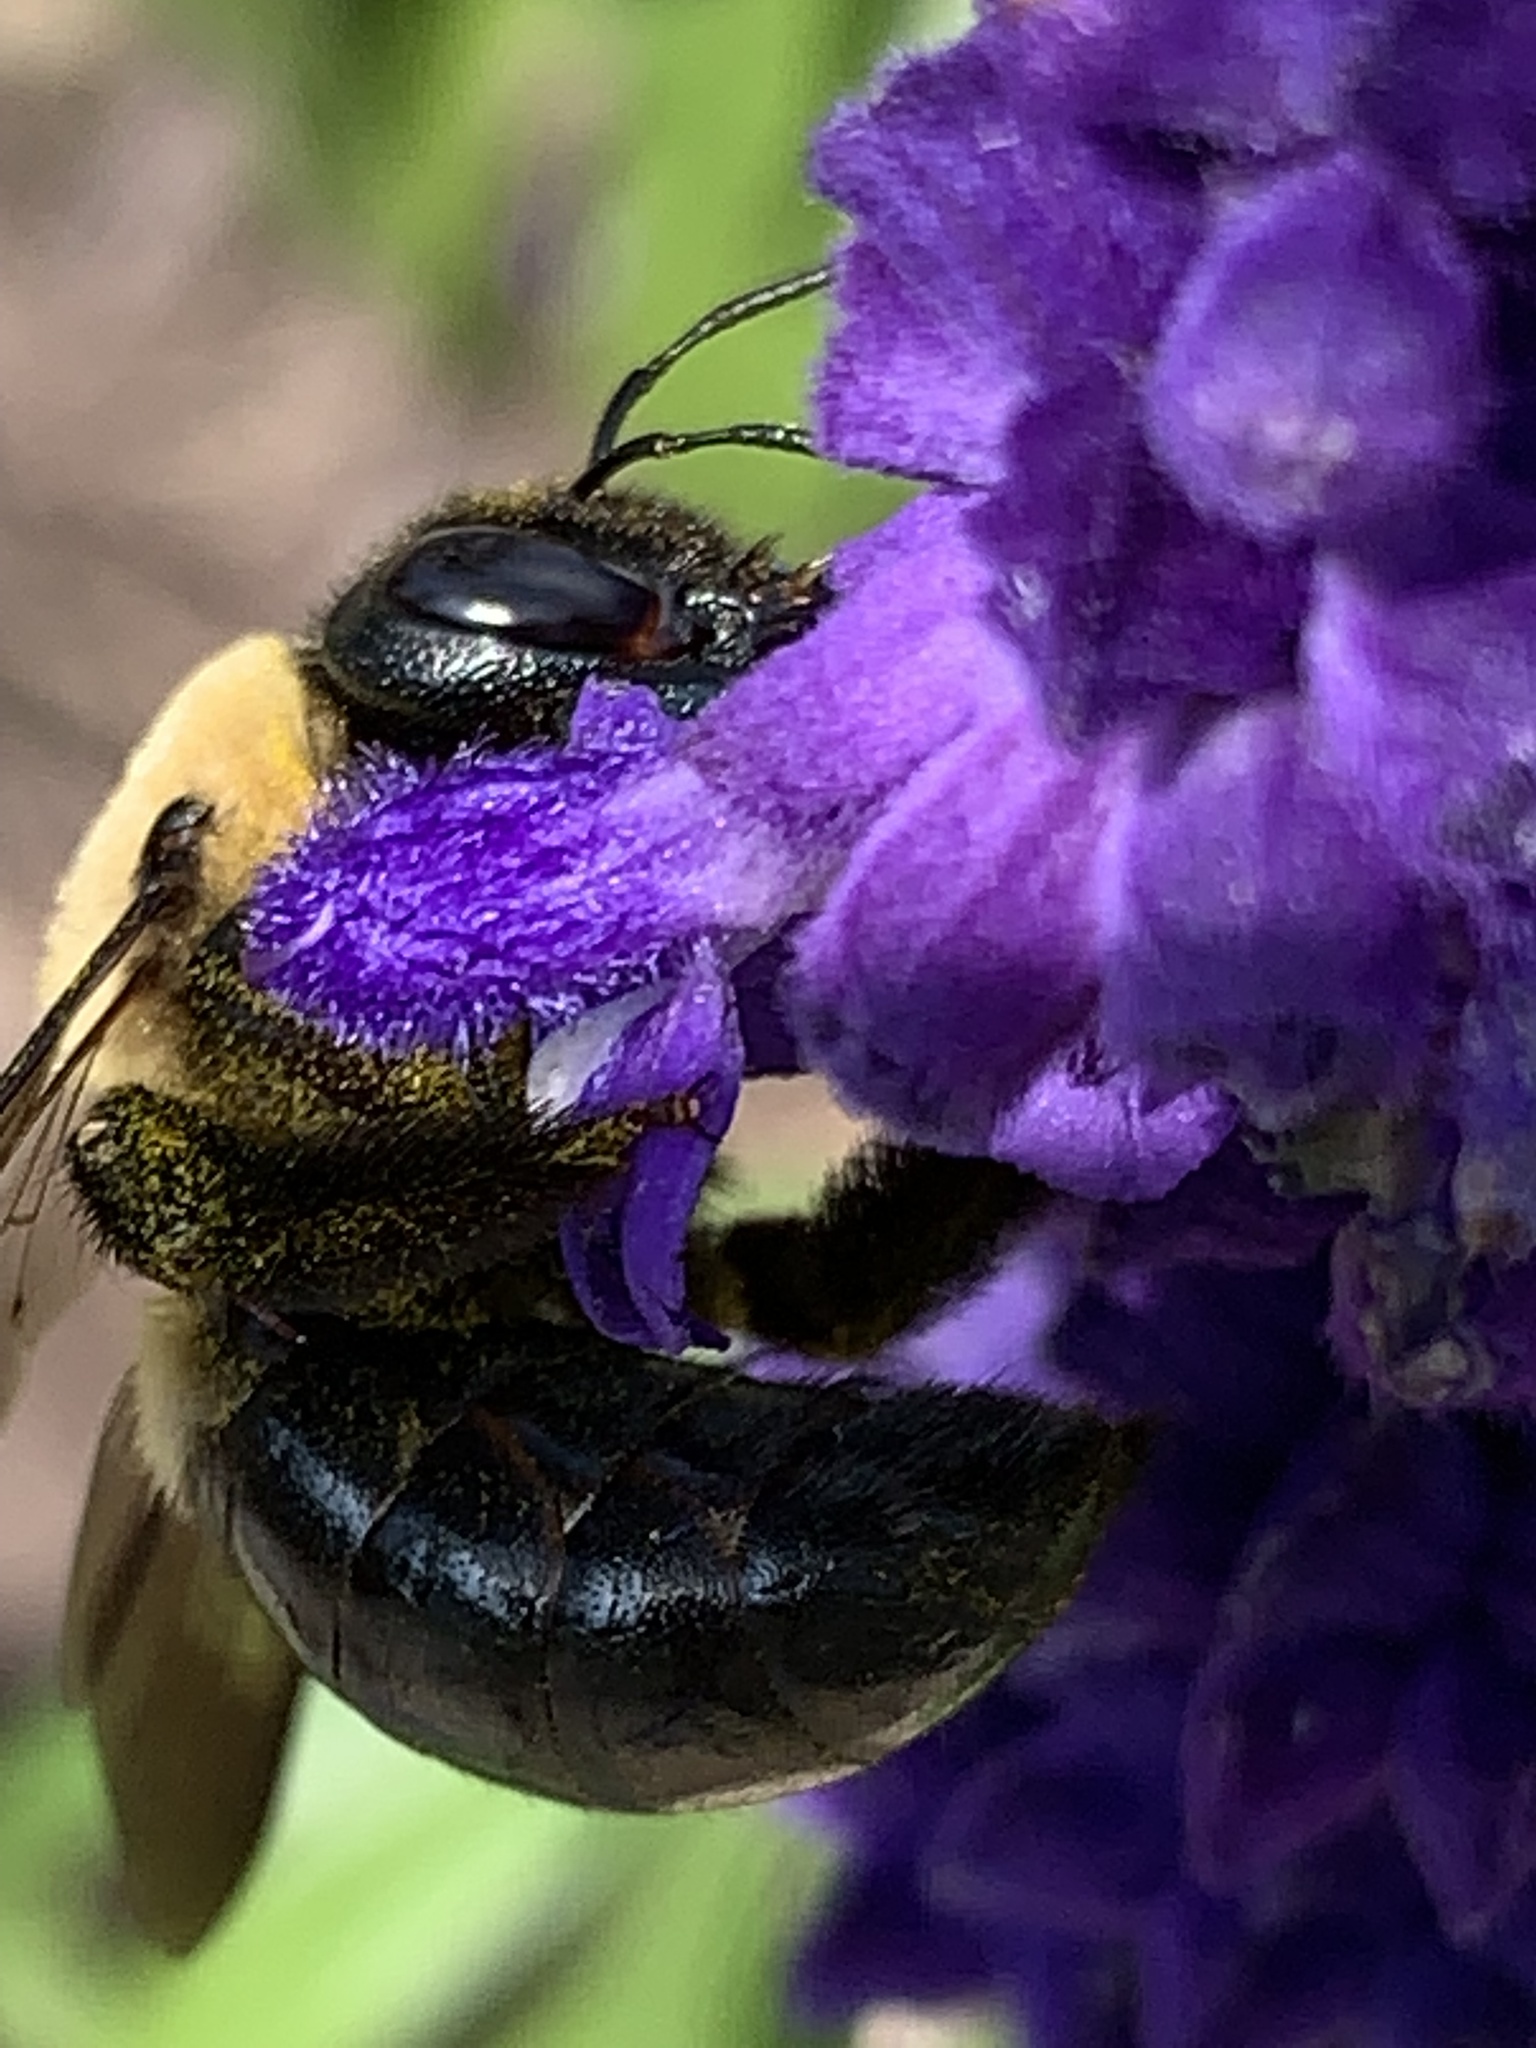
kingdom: Animalia
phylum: Arthropoda
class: Insecta
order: Hymenoptera
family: Apidae
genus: Xylocopa
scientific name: Xylocopa virginica
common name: Carpenter bee
